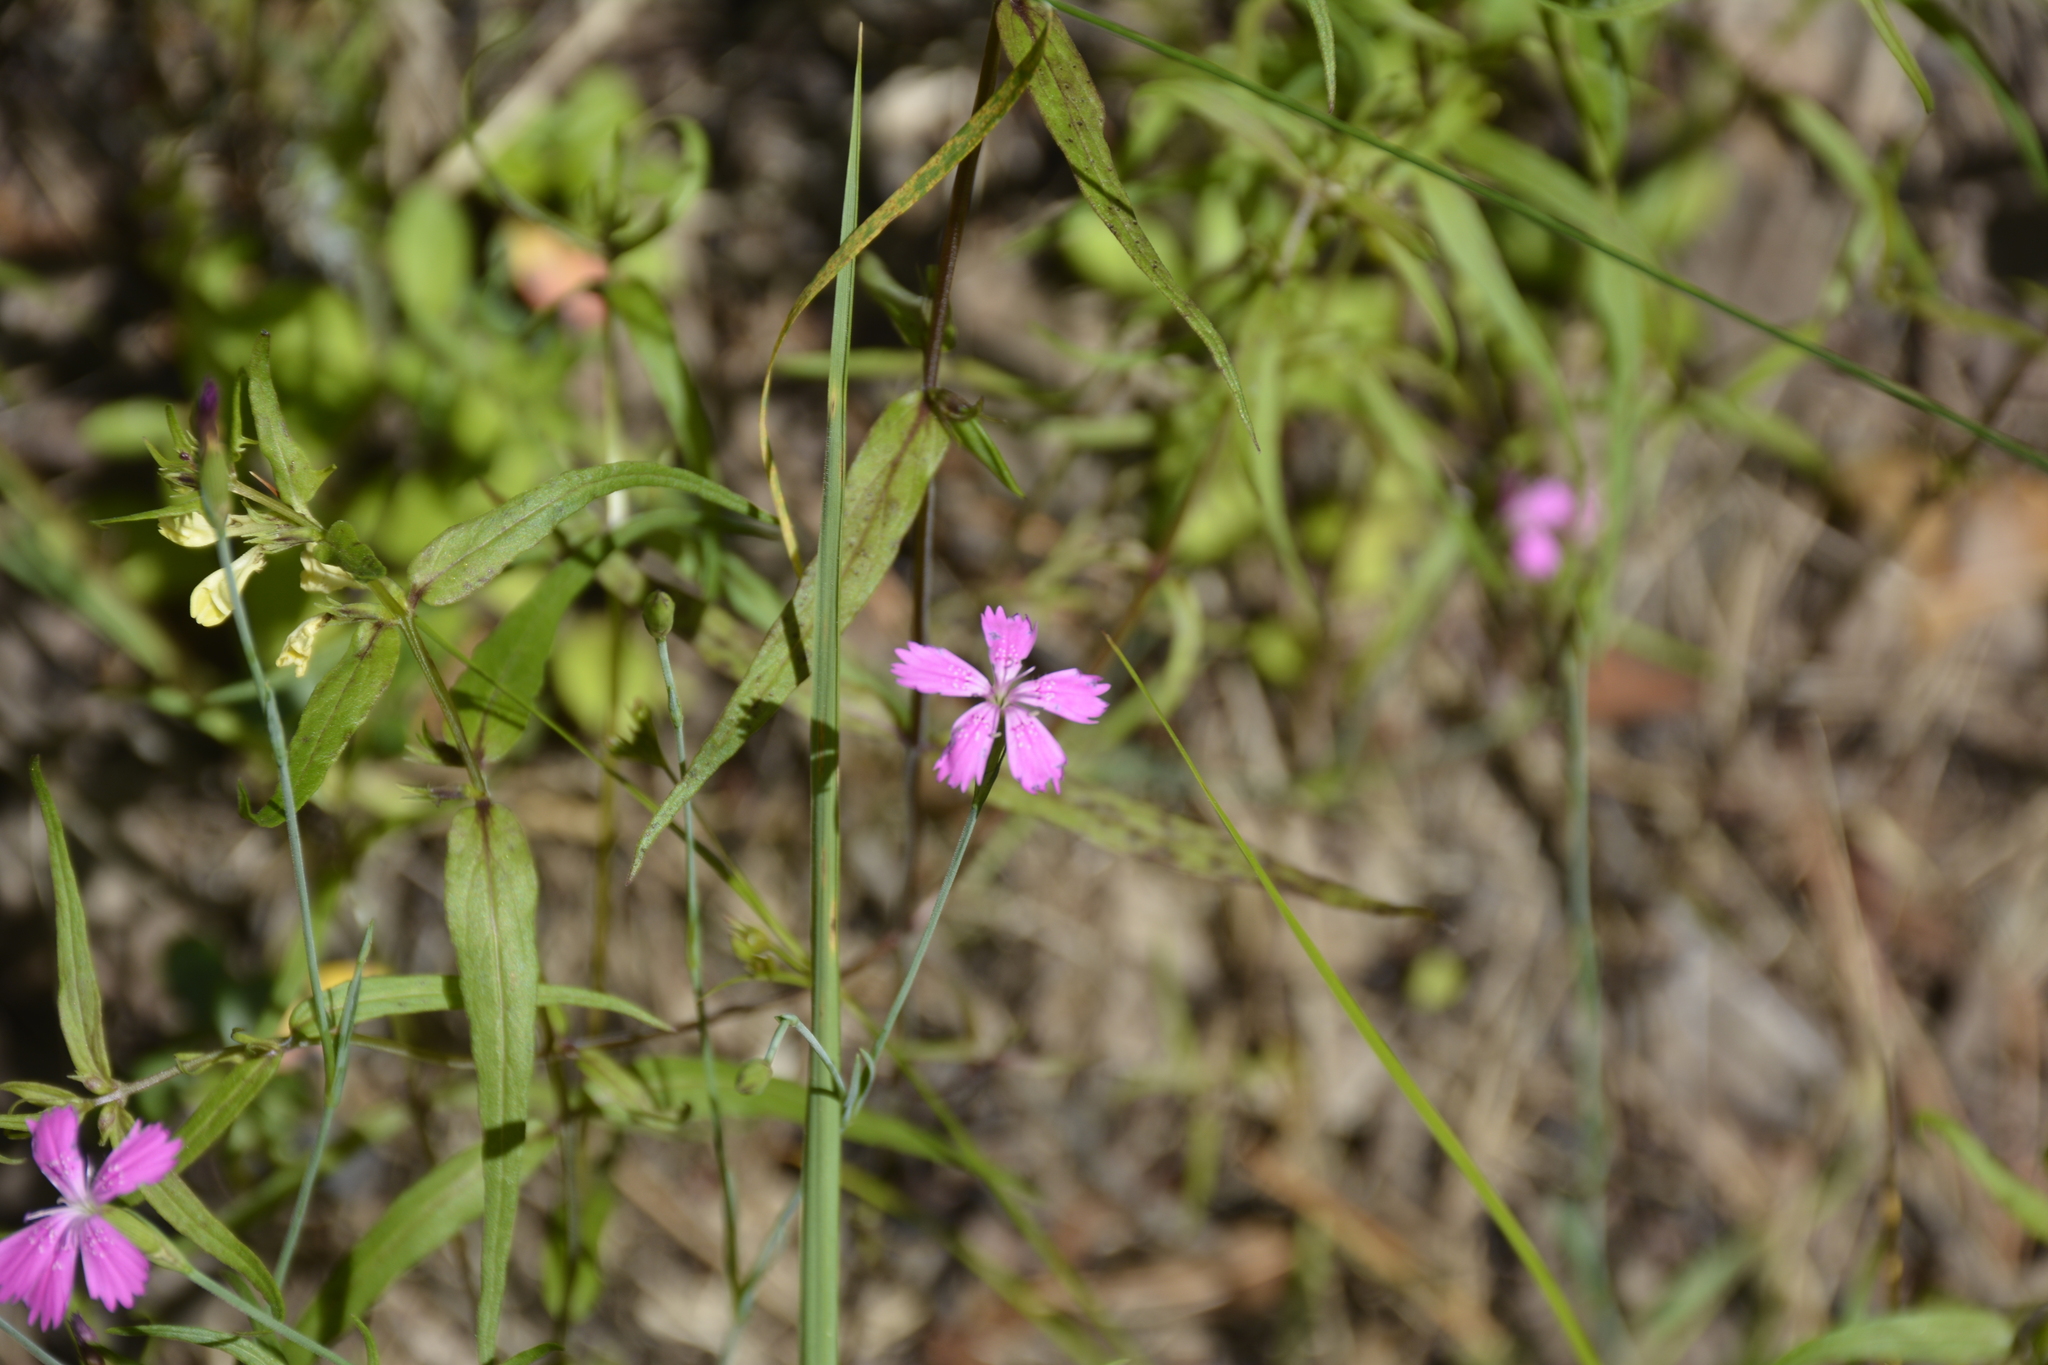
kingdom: Plantae
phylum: Tracheophyta
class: Magnoliopsida
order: Caryophyllales
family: Caryophyllaceae
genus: Dianthus
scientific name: Dianthus deltoides
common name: Maiden pink
